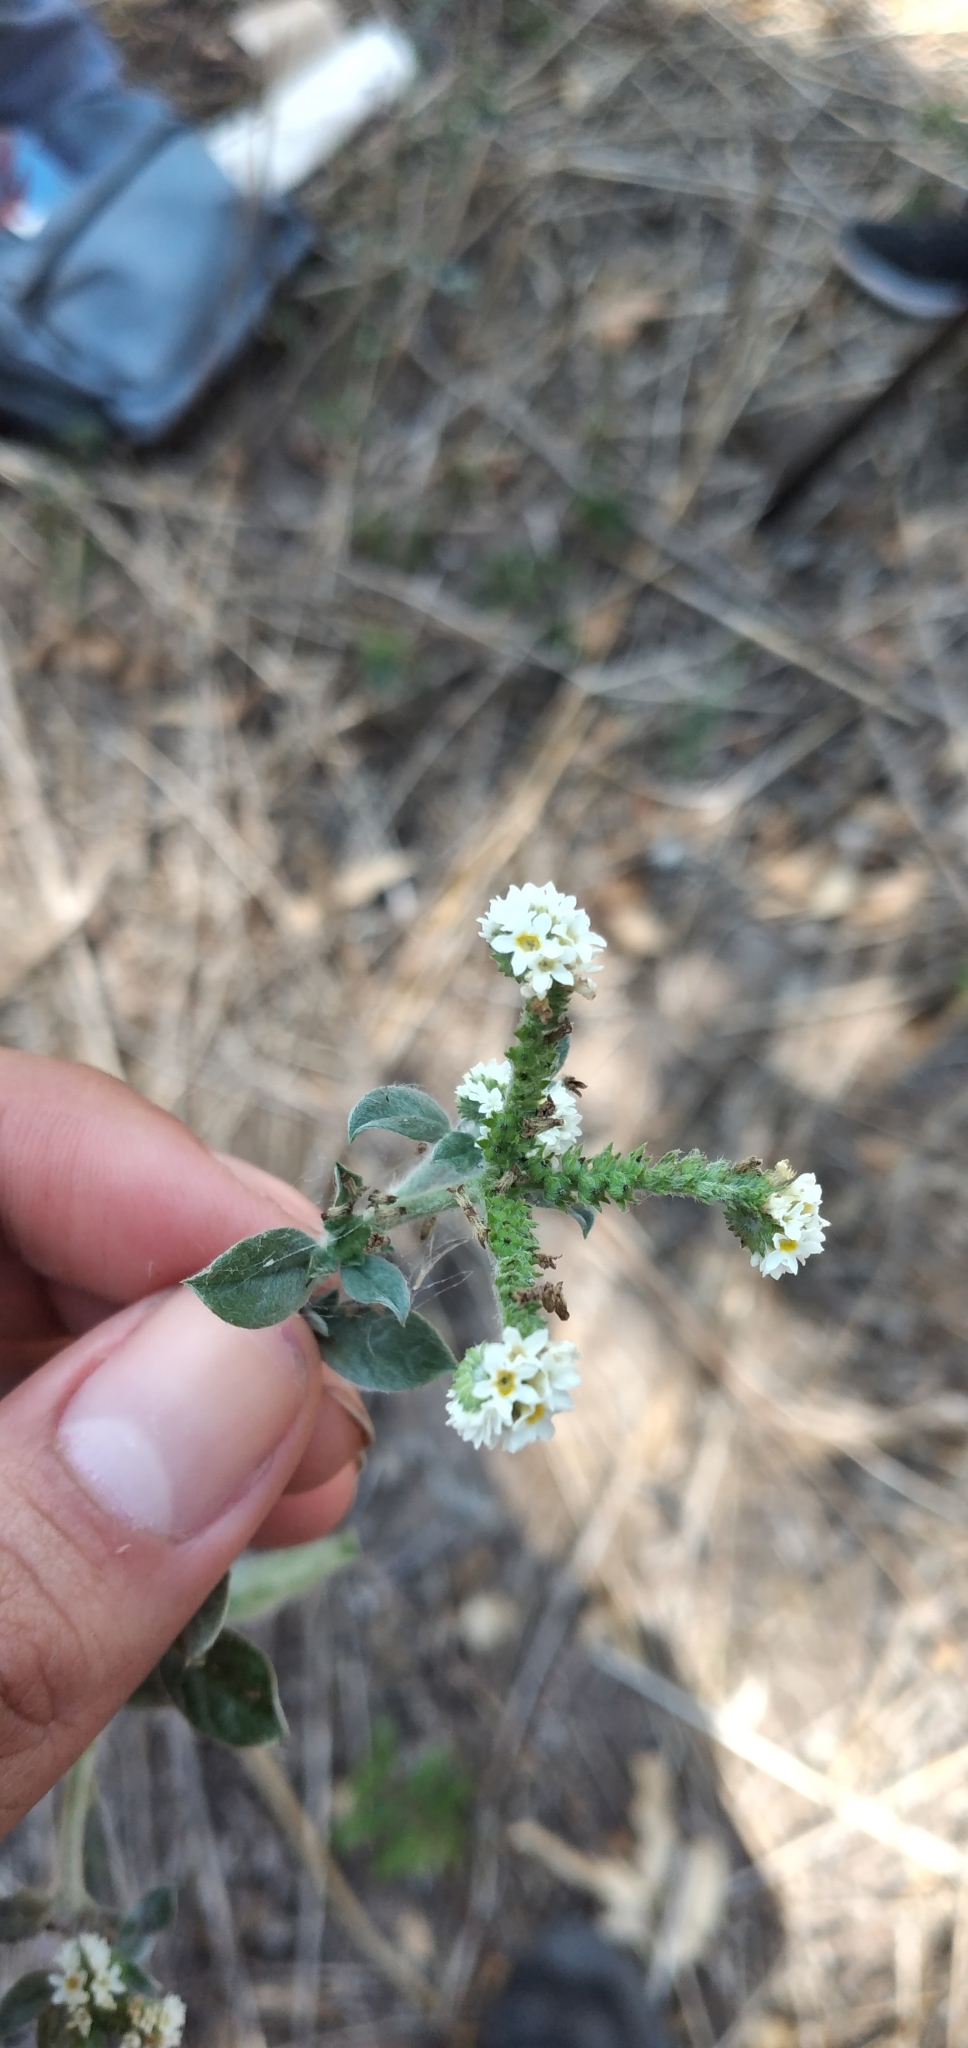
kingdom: Plantae
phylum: Tracheophyta
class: Magnoliopsida
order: Boraginales
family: Heliotropiaceae
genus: Euploca
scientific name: Euploca procumbens
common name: Fourspike heliotrope
